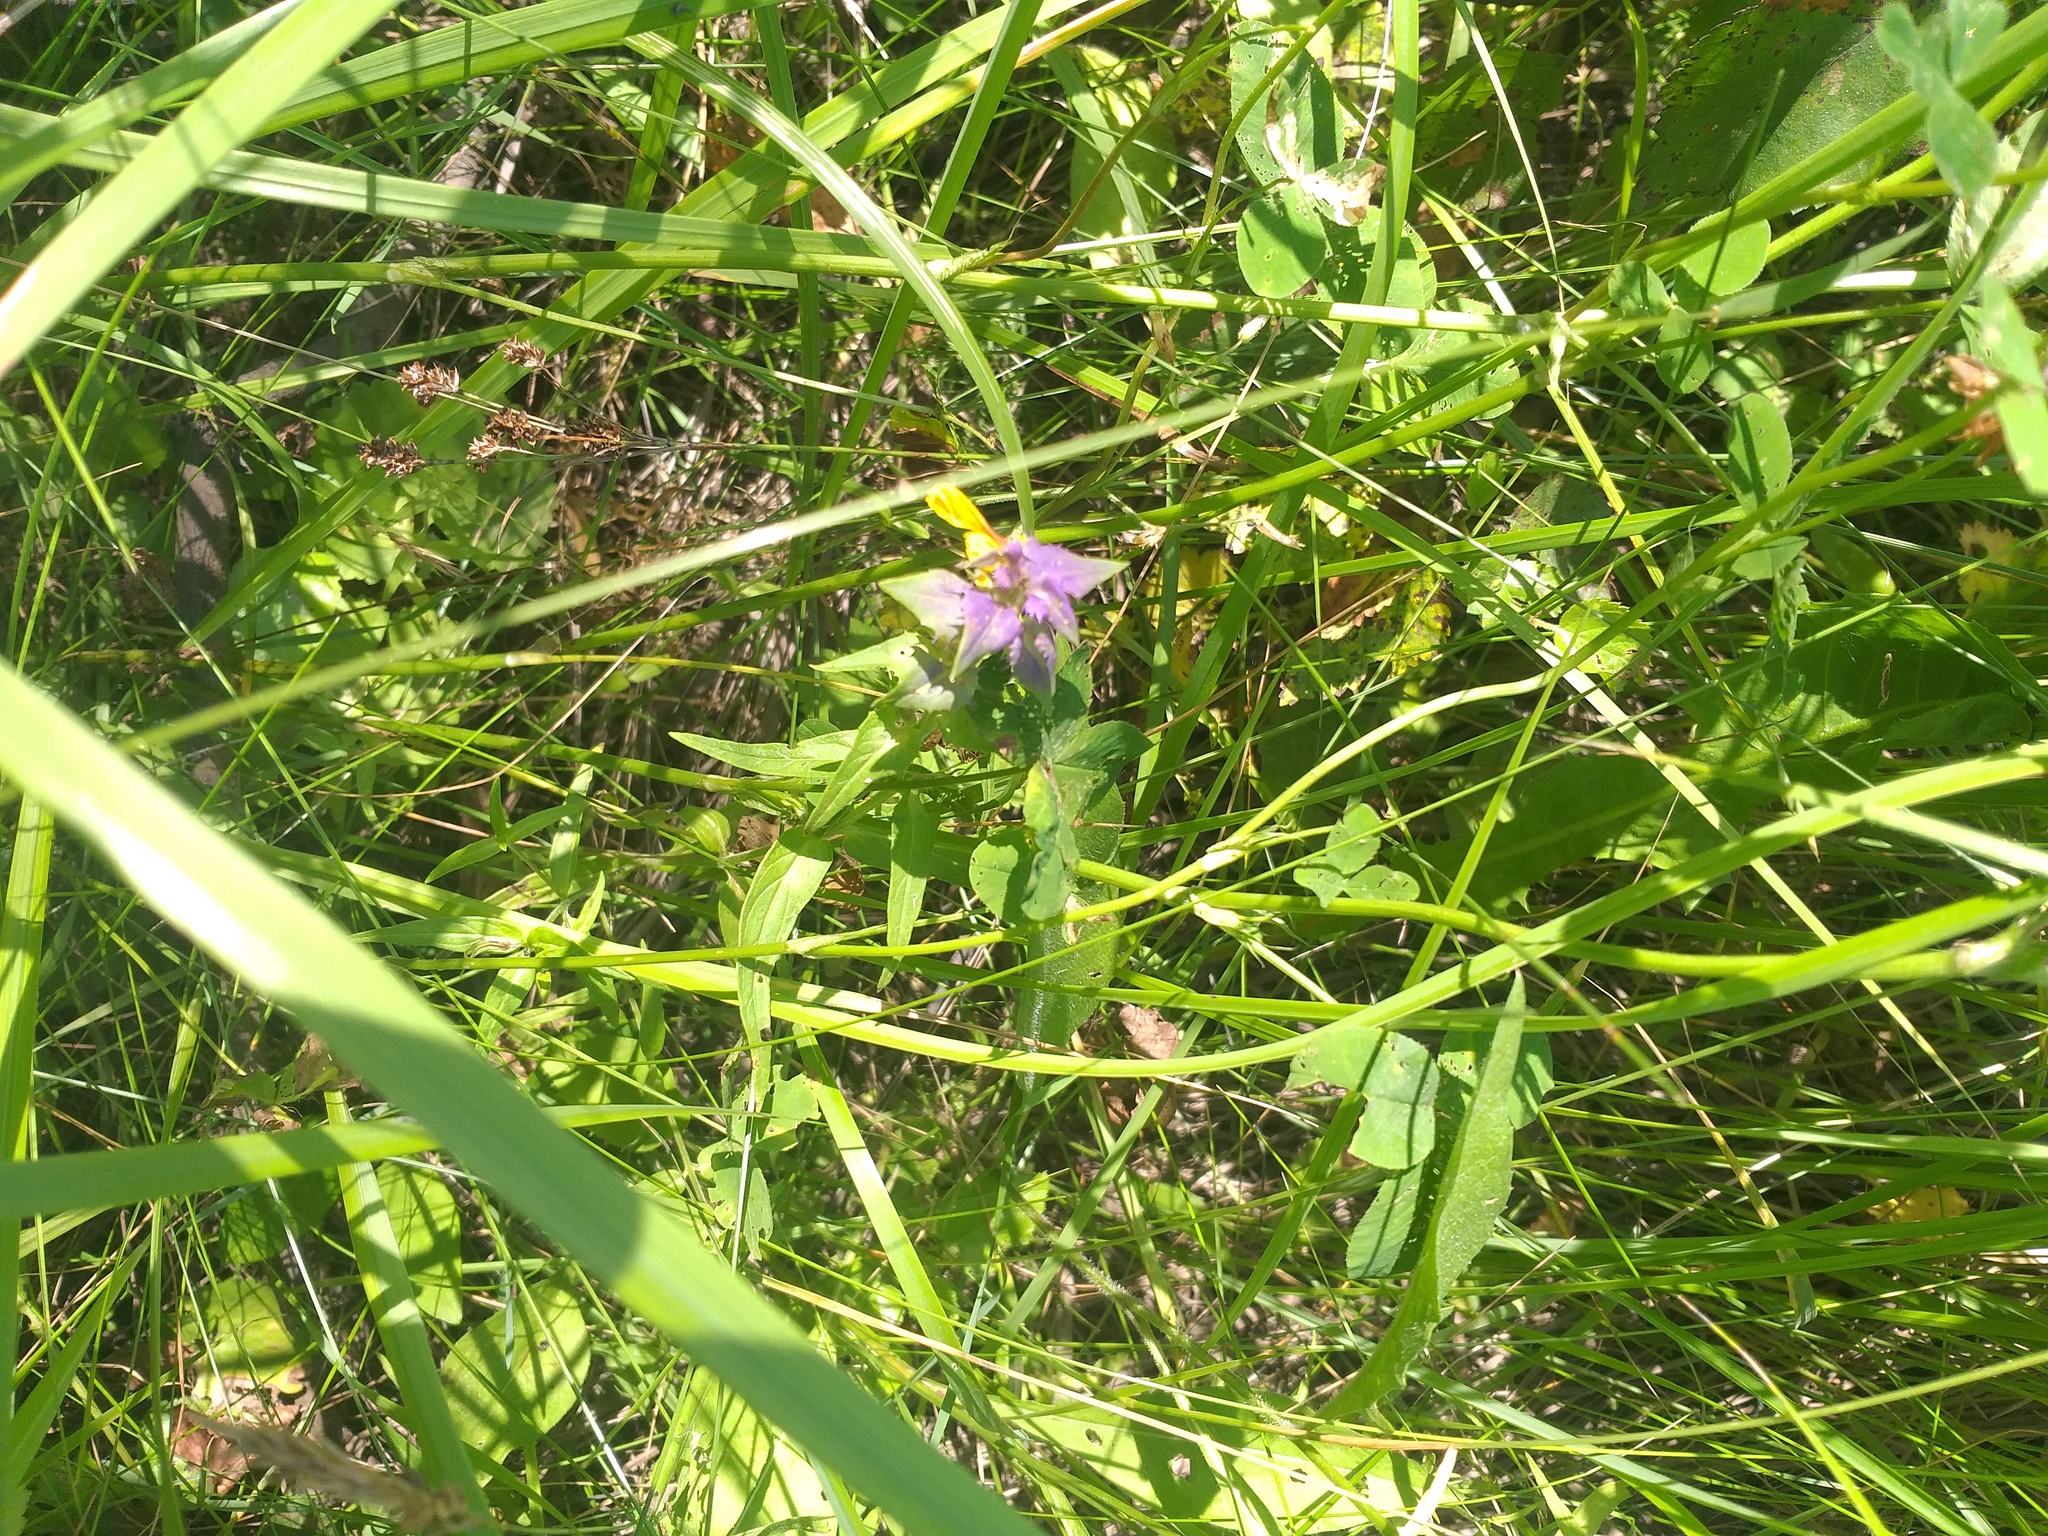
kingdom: Plantae
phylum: Tracheophyta
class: Magnoliopsida
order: Lamiales
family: Orobanchaceae
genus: Melampyrum
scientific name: Melampyrum nemorosum
